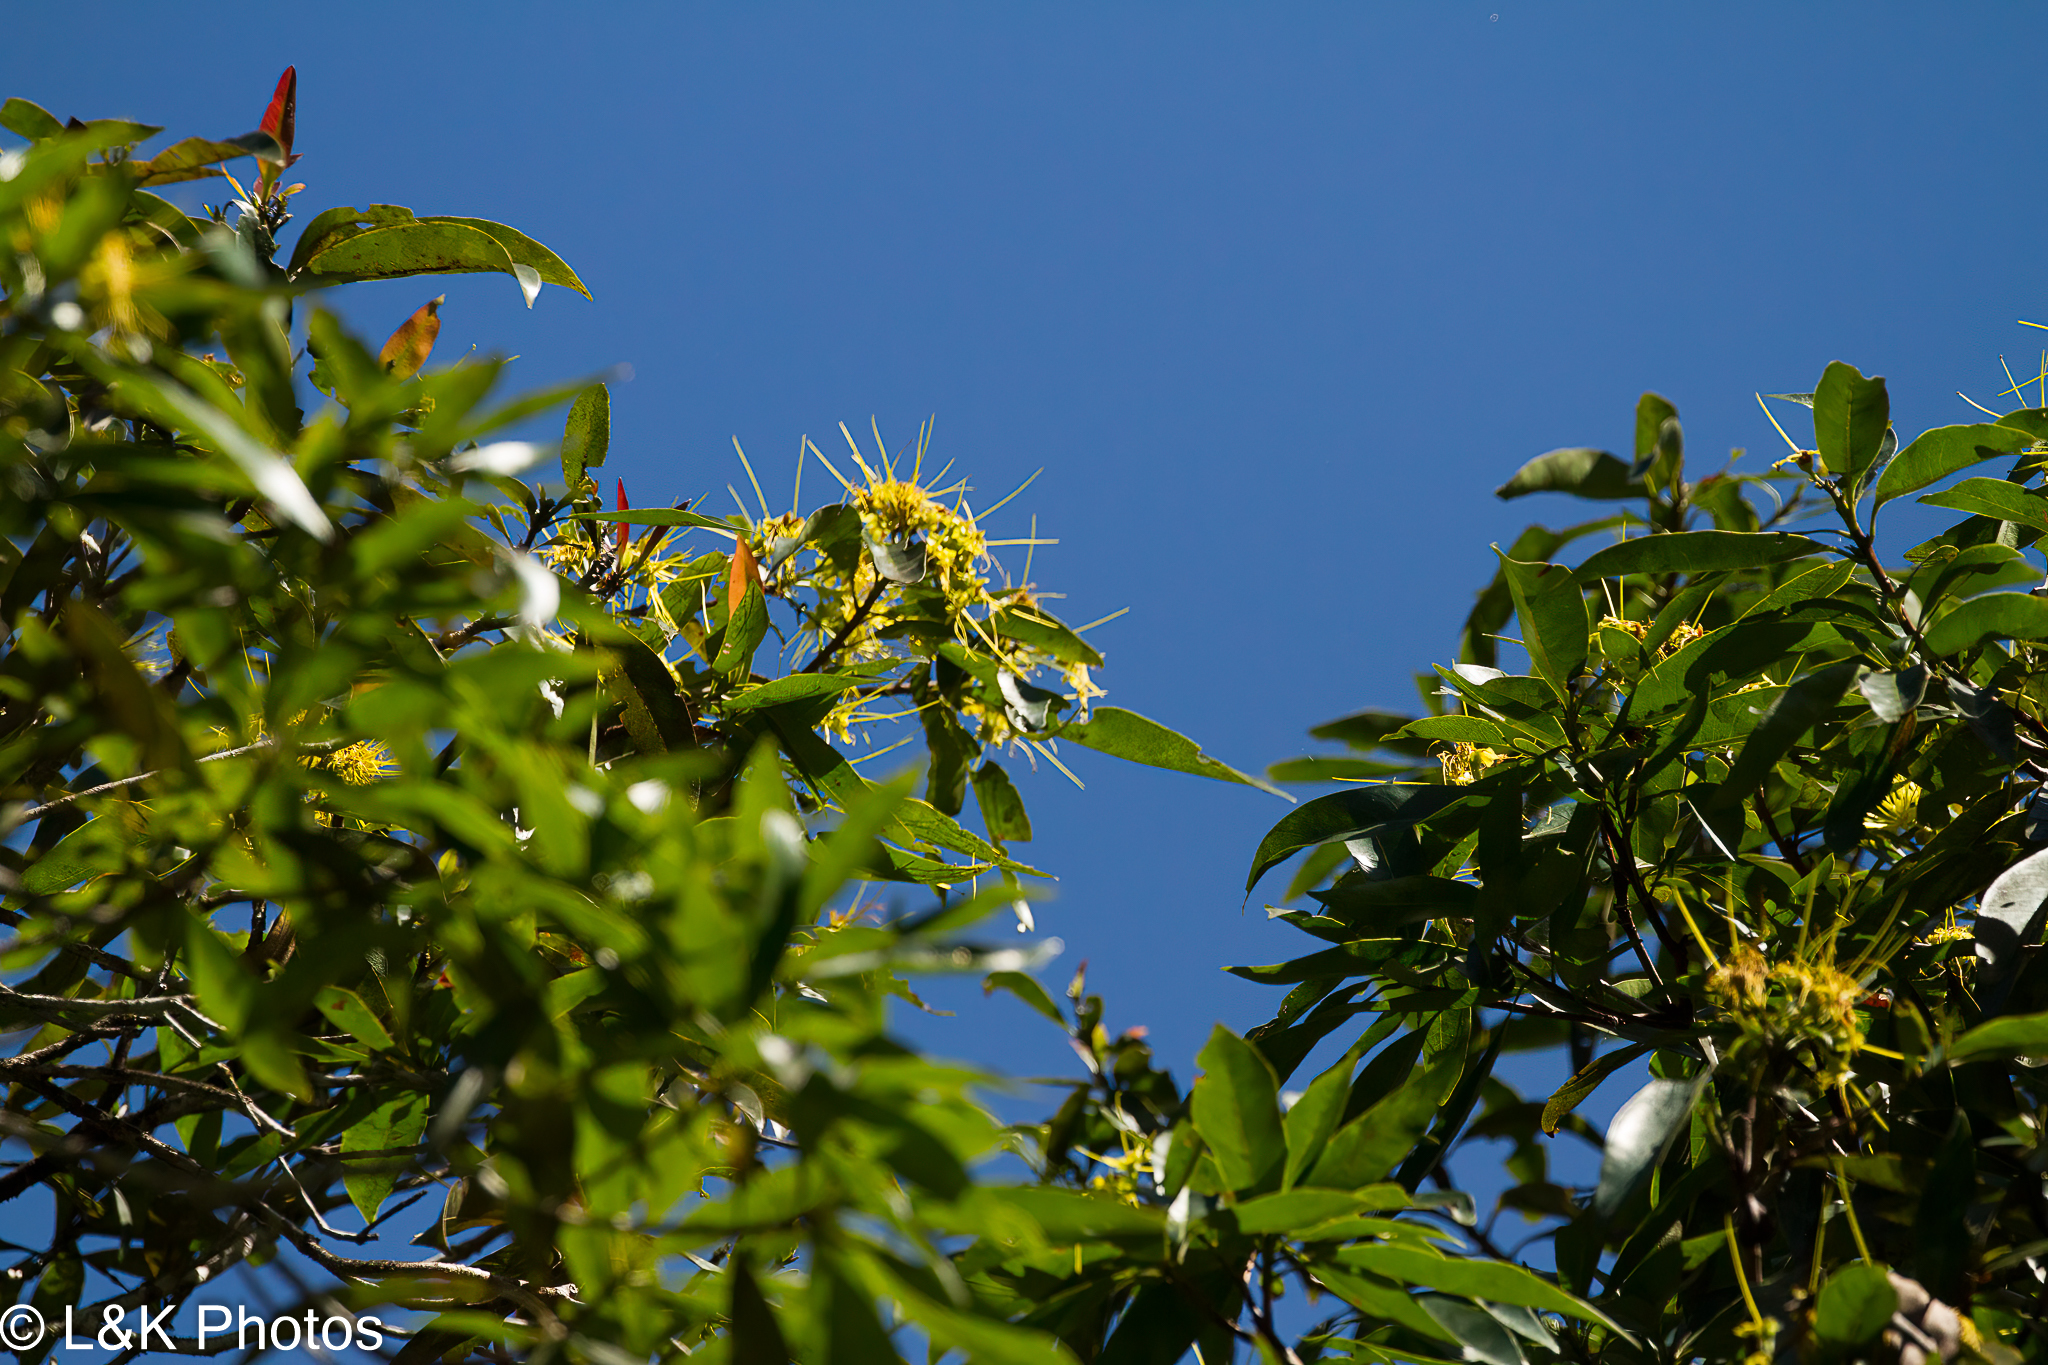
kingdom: Plantae
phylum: Tracheophyta
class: Magnoliopsida
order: Myrtales
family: Myrtaceae
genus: Xanthostemon
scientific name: Xanthostemon chrysanthus
